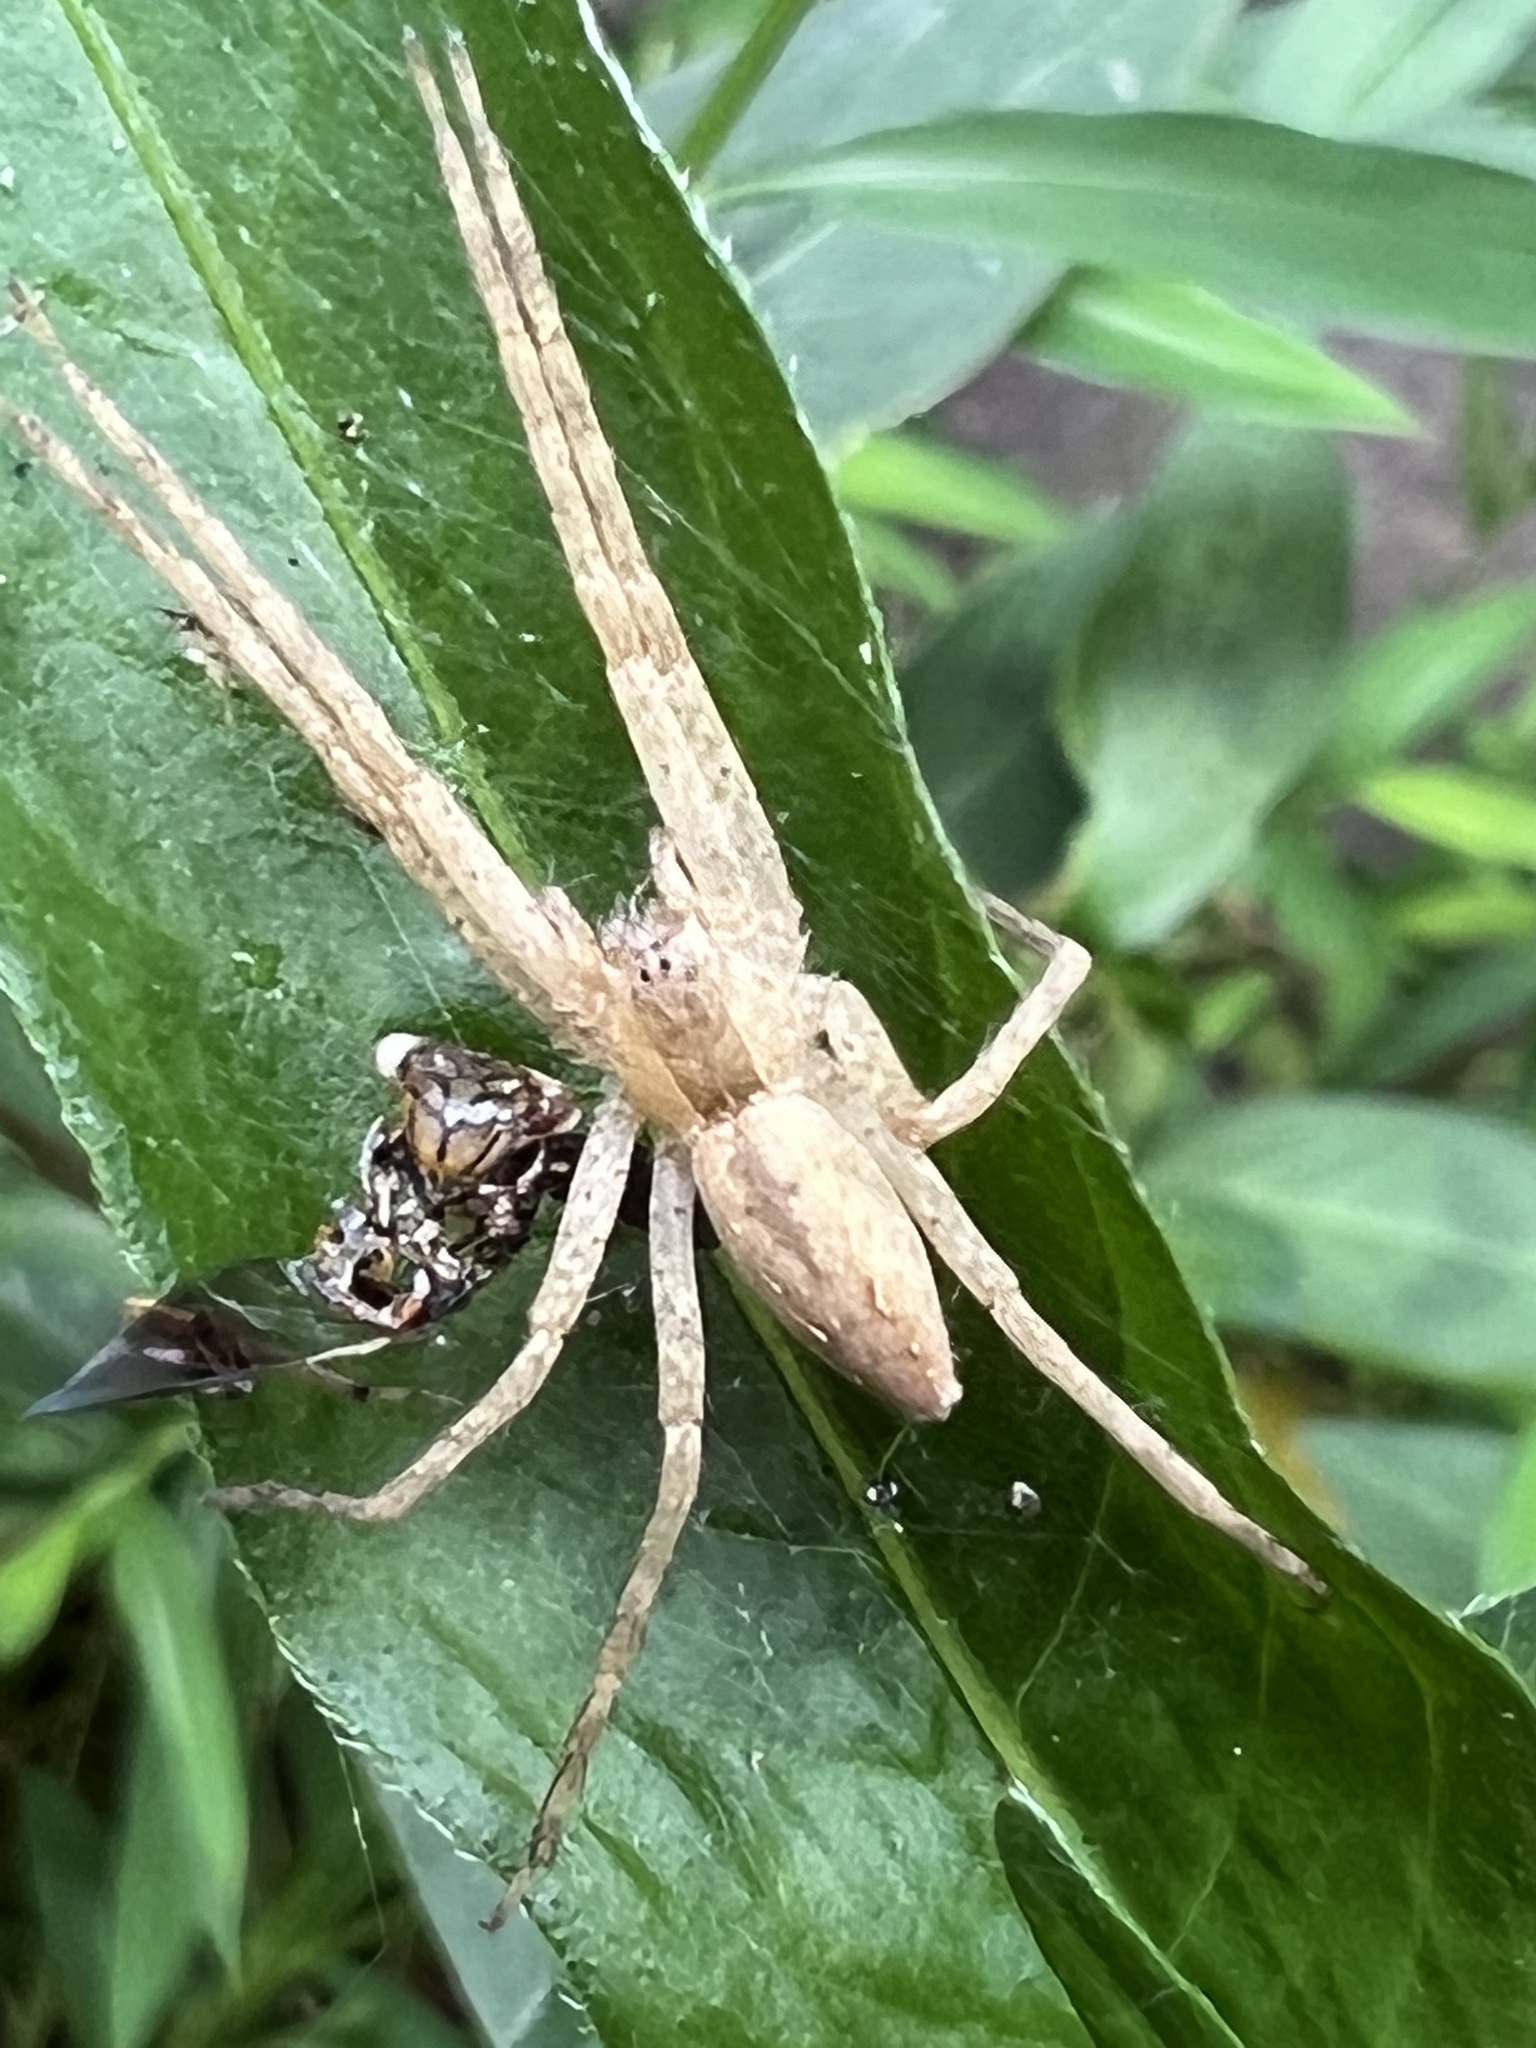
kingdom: Animalia
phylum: Arthropoda
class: Arachnida
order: Araneae
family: Pisauridae
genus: Pisaurina
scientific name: Pisaurina mira
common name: American nursery web spider
